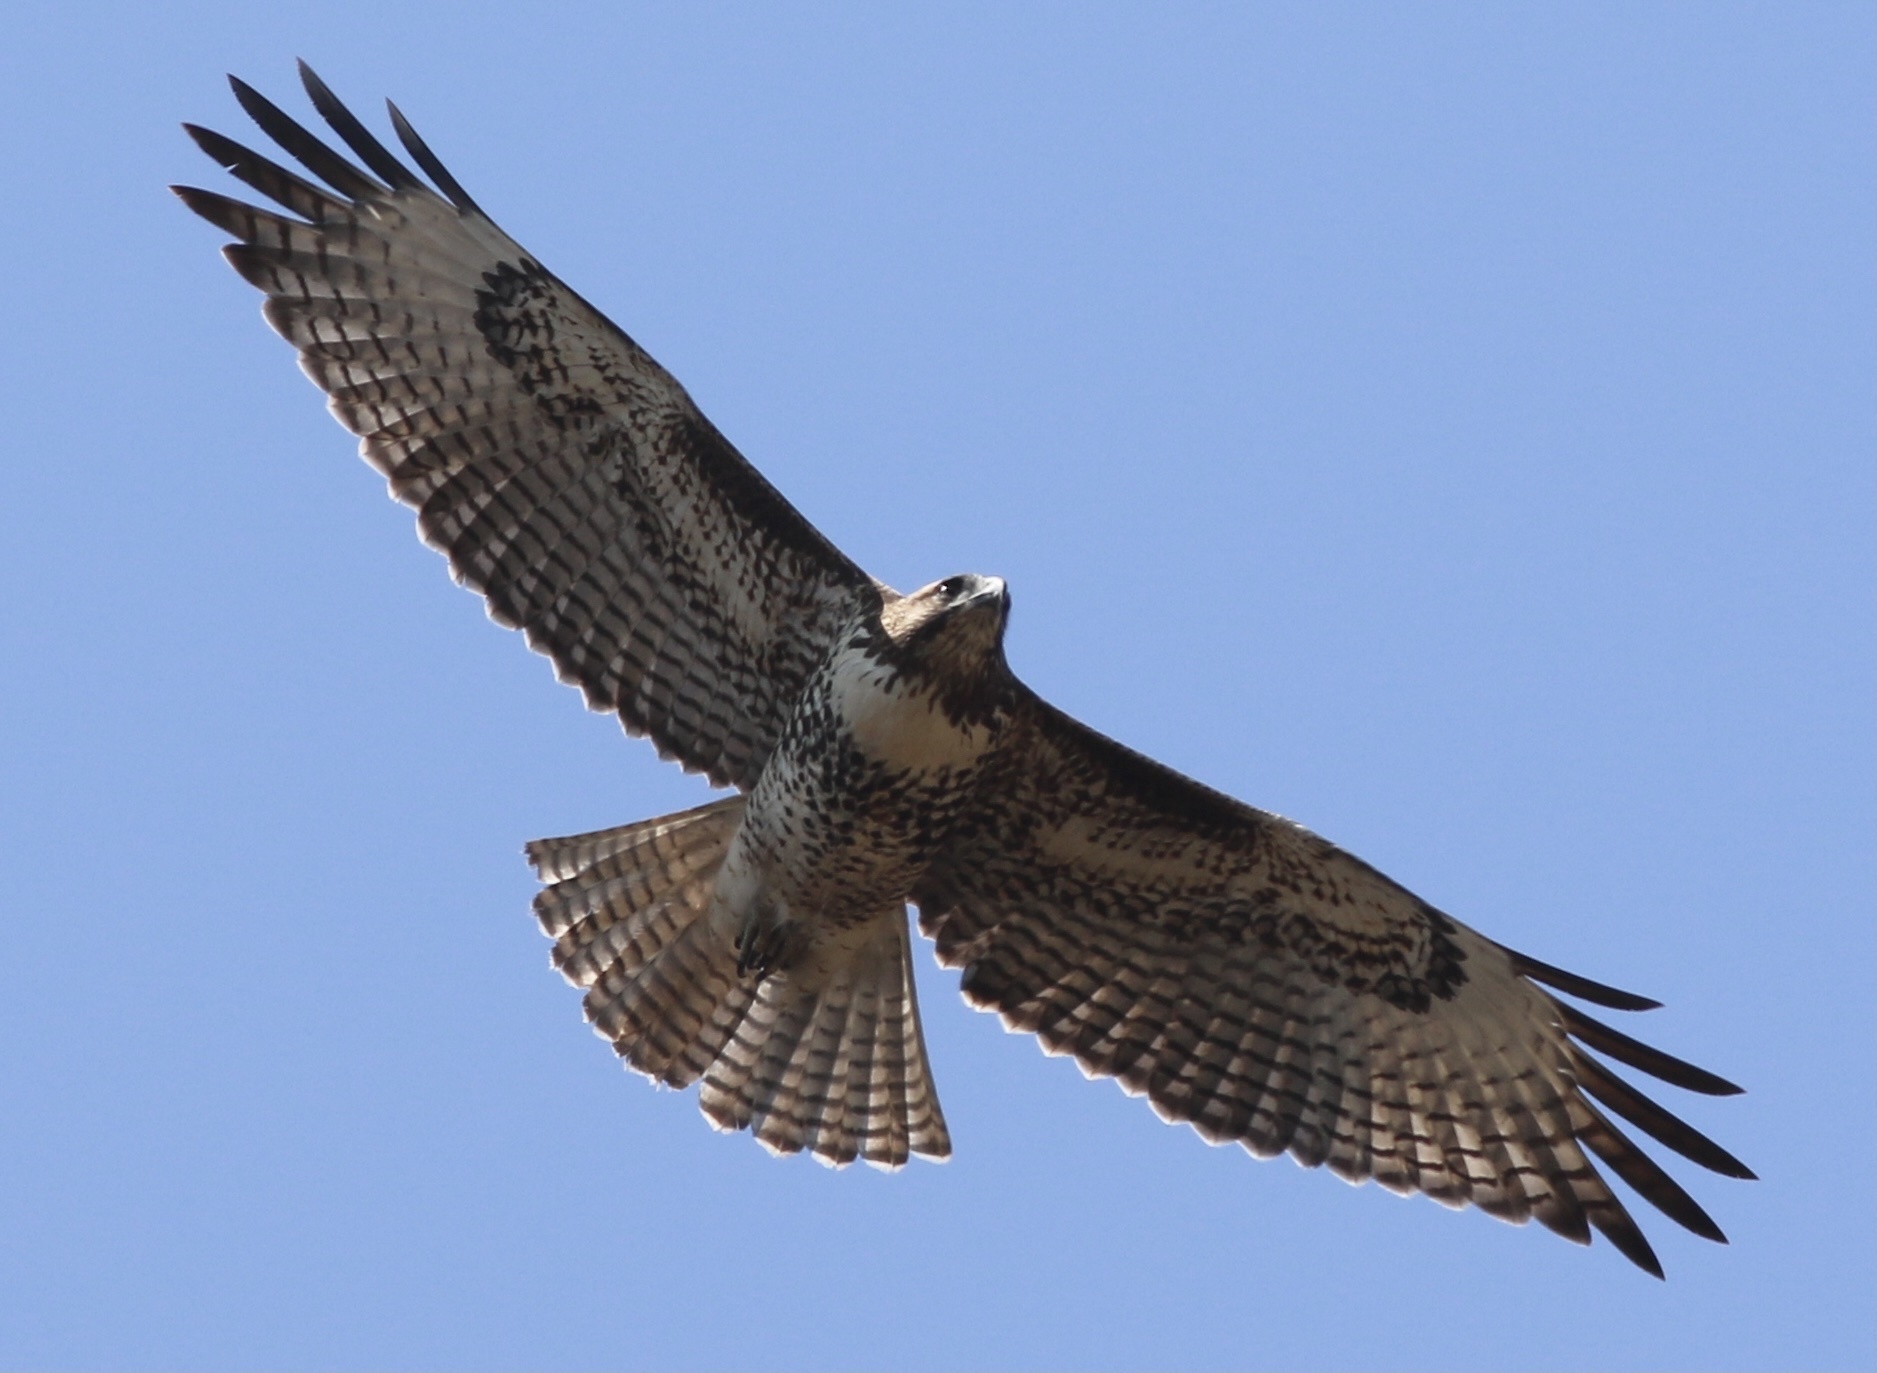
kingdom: Animalia
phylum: Chordata
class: Aves
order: Accipitriformes
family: Accipitridae
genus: Buteo
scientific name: Buteo jamaicensis
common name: Red-tailed hawk
